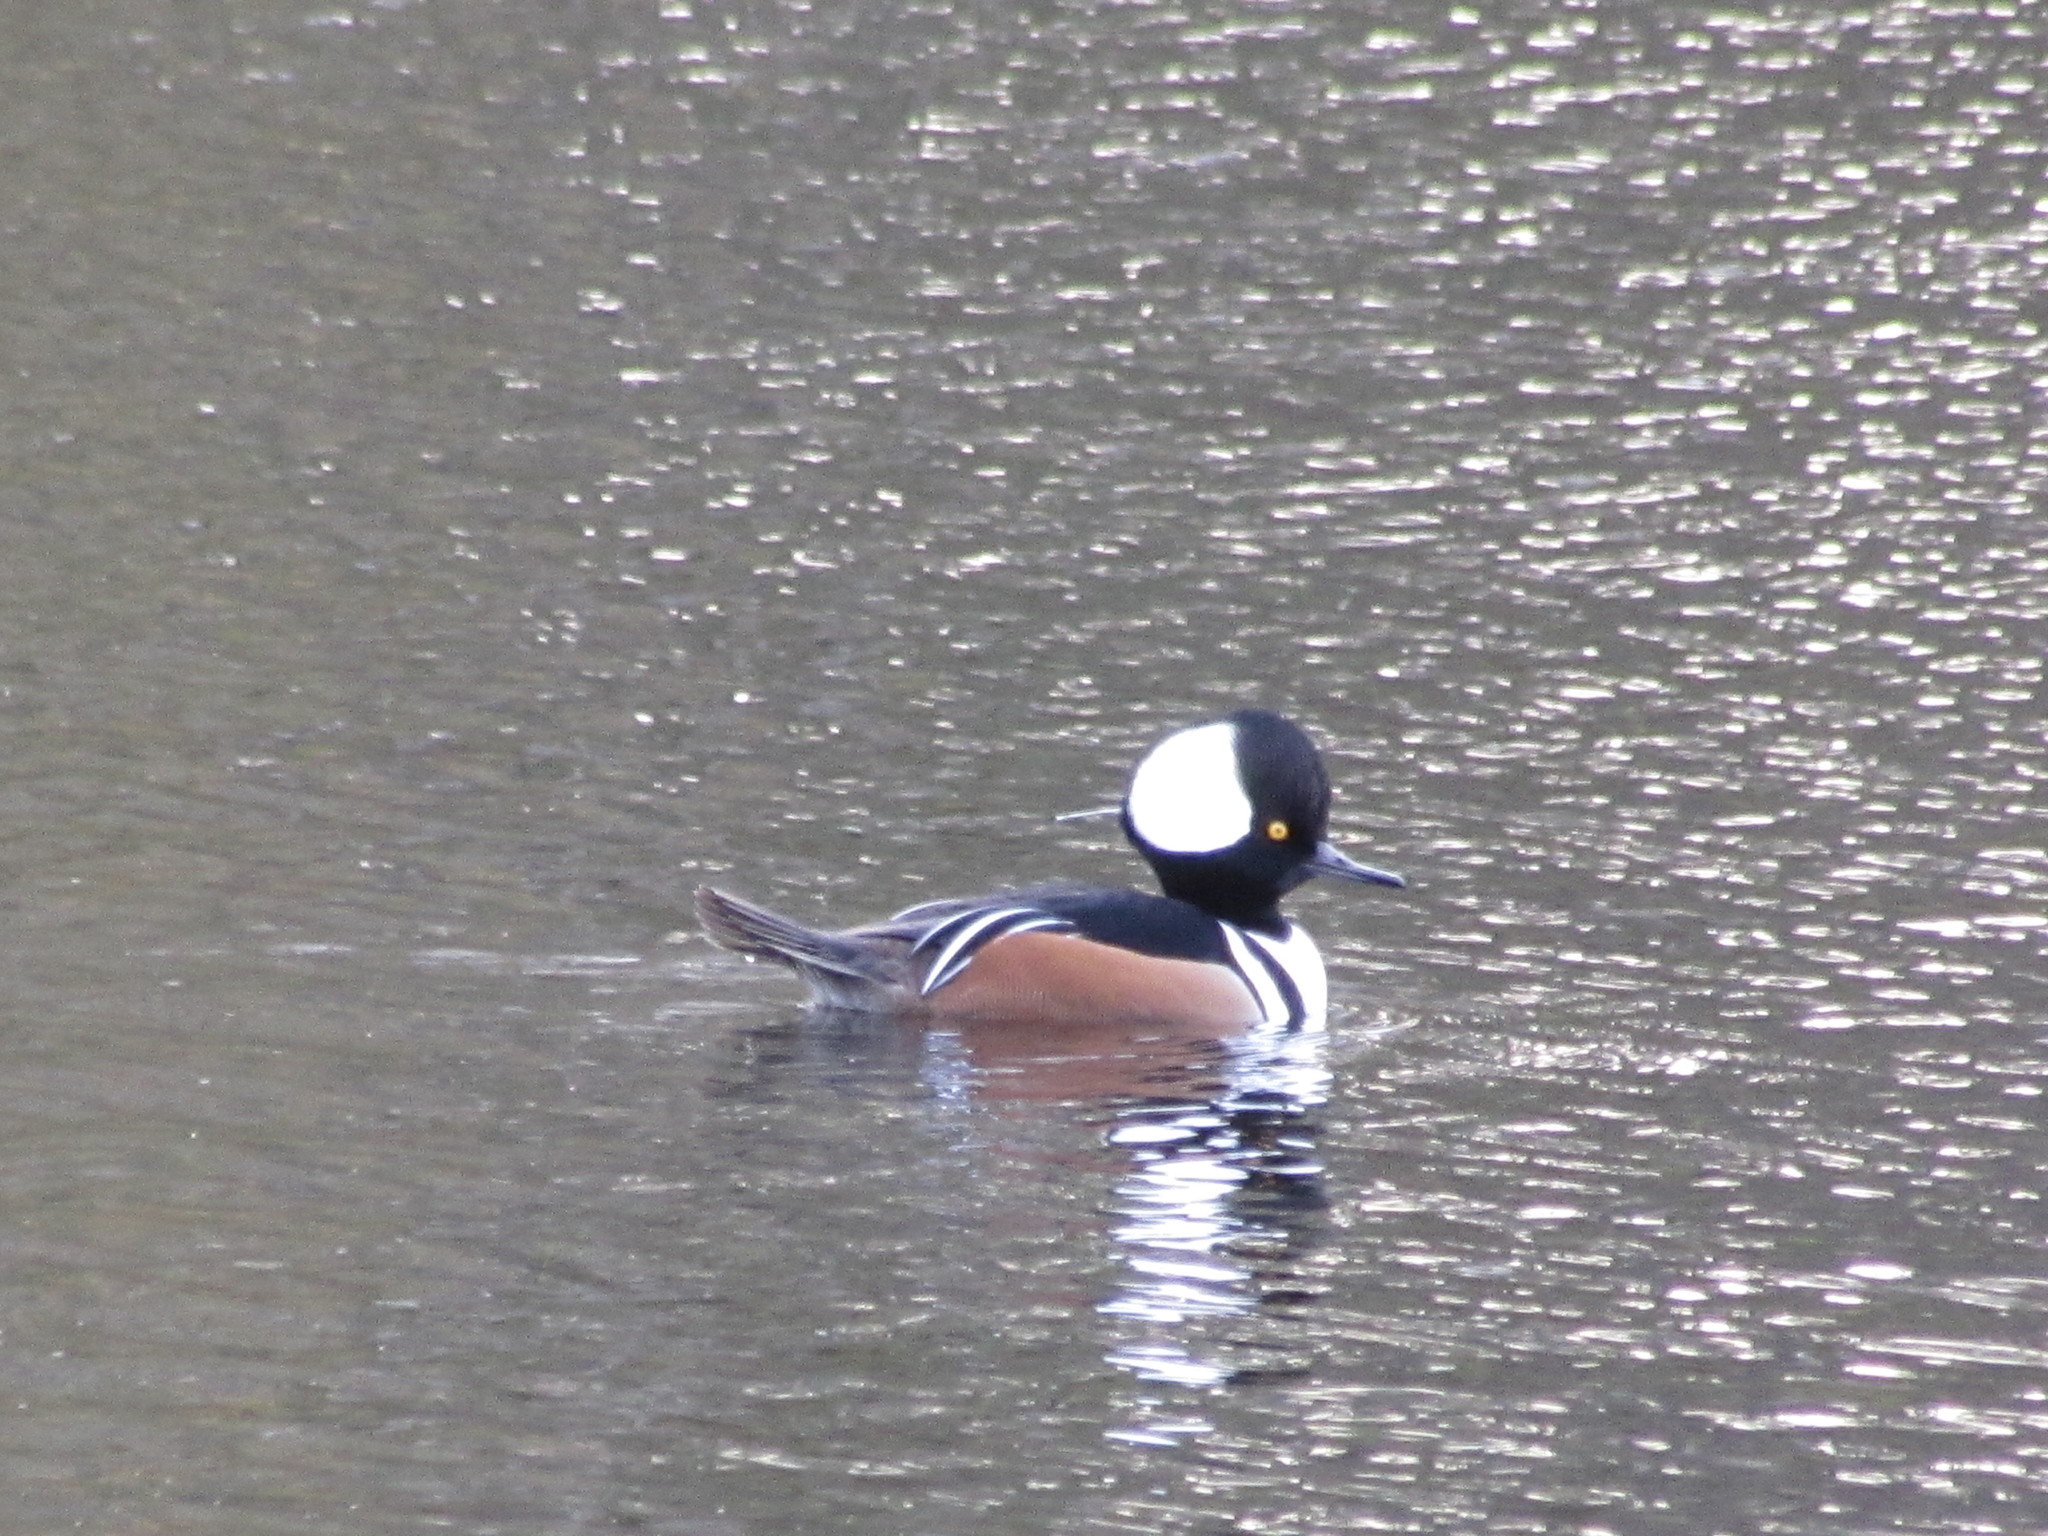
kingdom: Animalia
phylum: Chordata
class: Aves
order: Anseriformes
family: Anatidae
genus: Lophodytes
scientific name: Lophodytes cucullatus
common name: Hooded merganser
